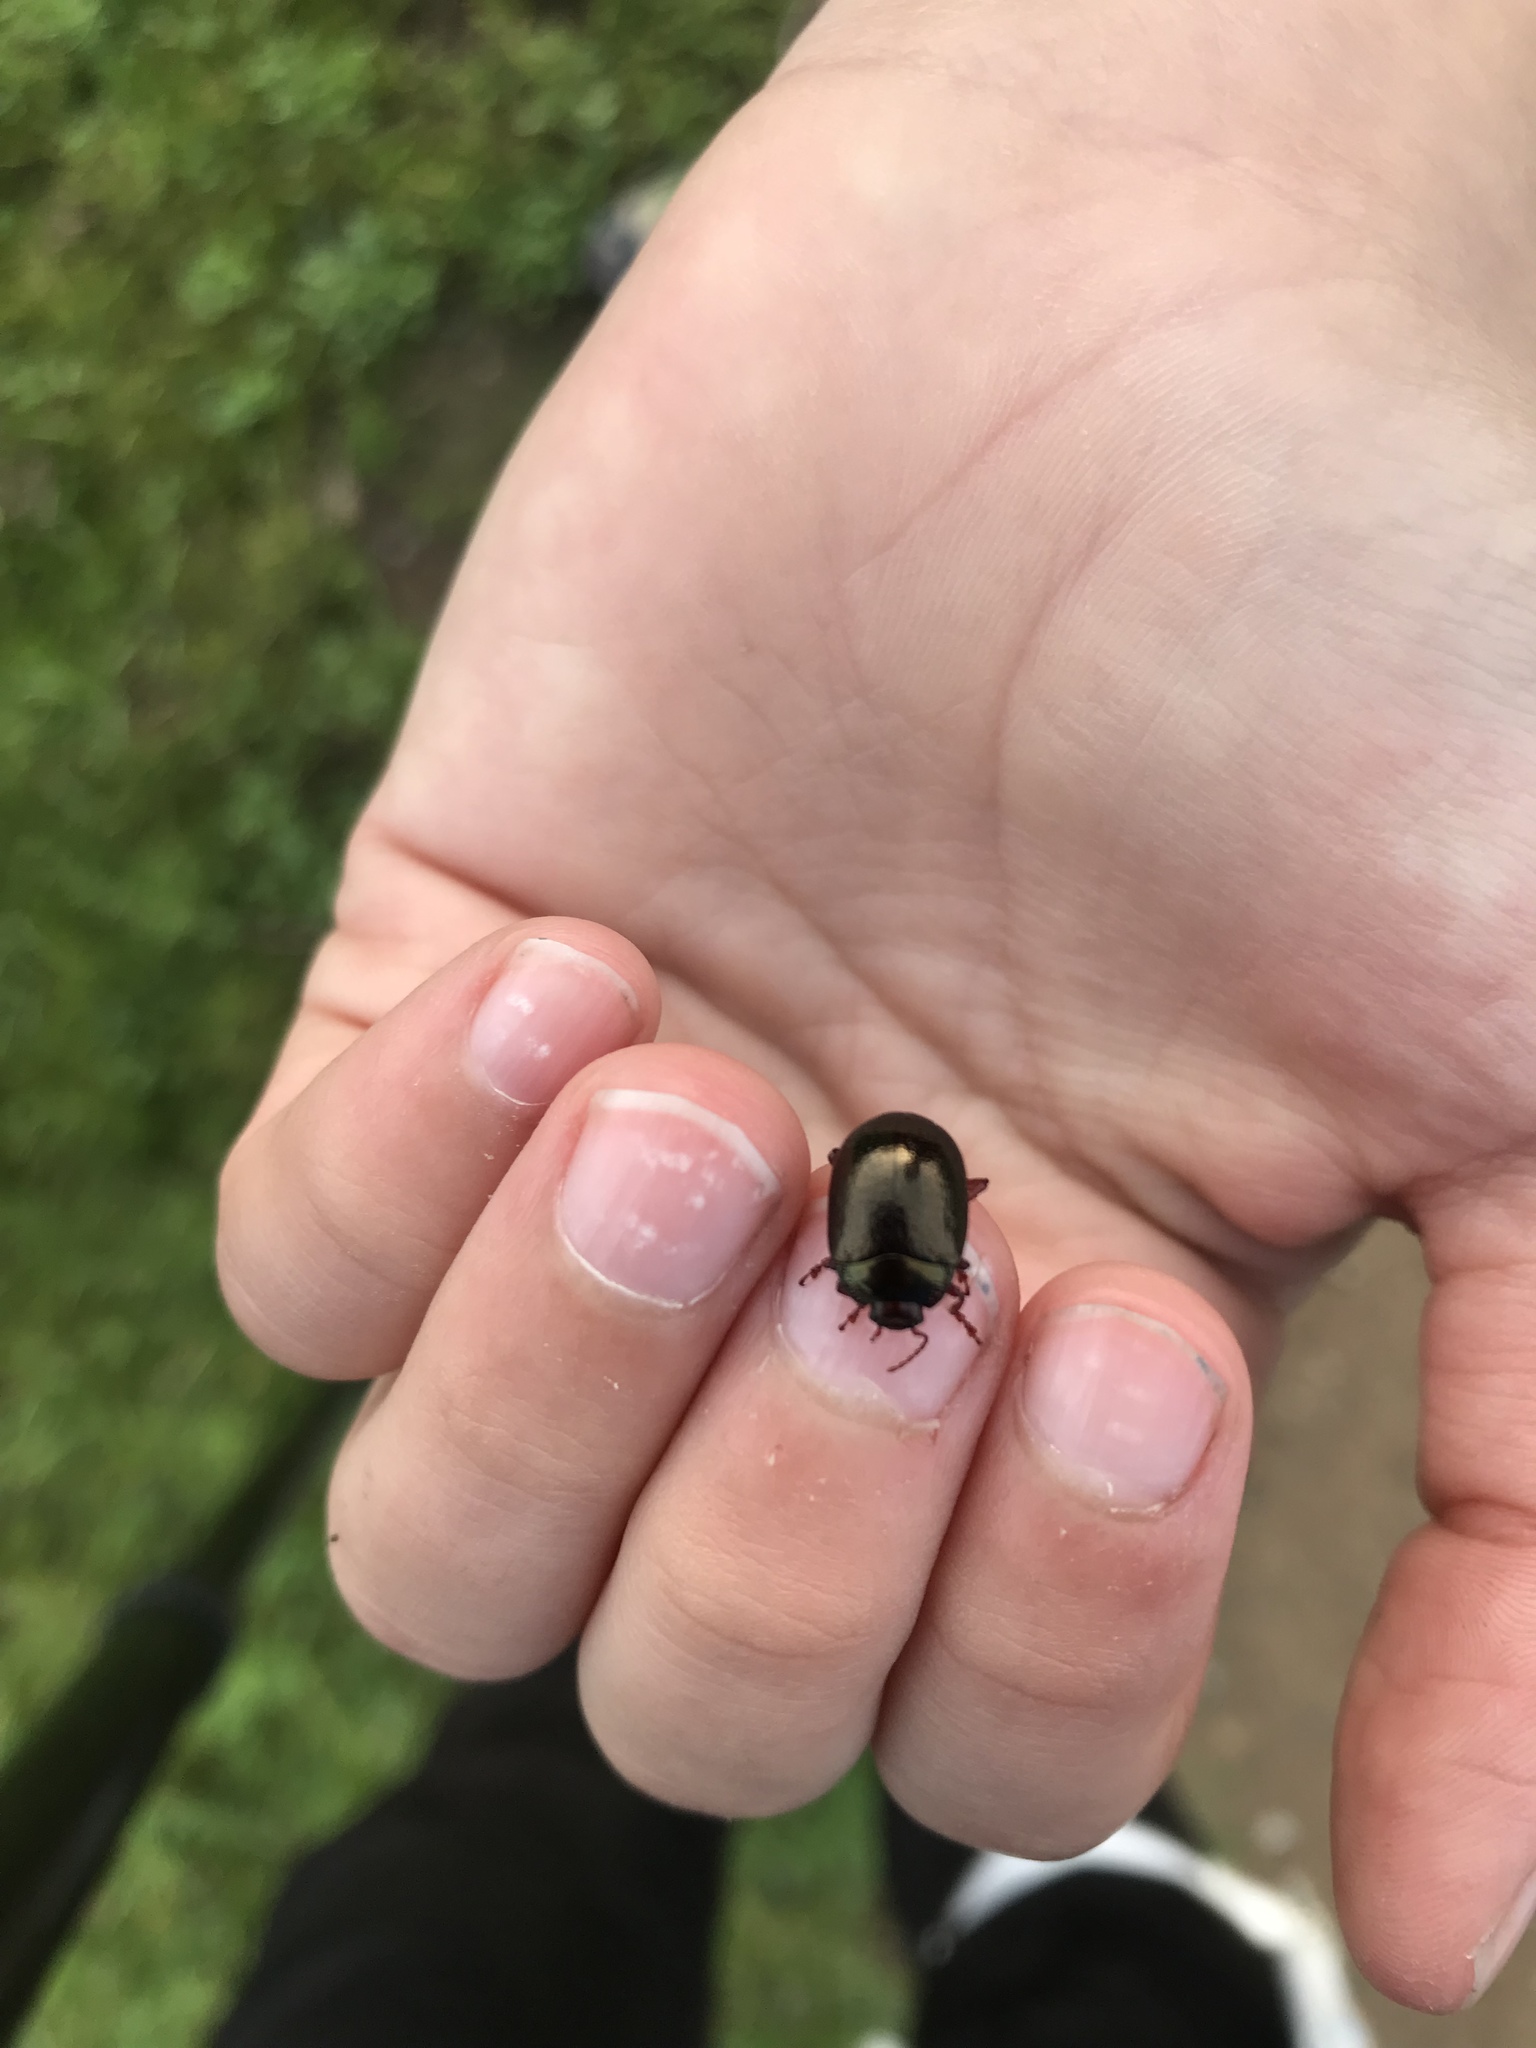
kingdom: Animalia
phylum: Arthropoda
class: Insecta
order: Coleoptera
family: Chrysomelidae
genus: Chrysolina
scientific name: Chrysolina bankii
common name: Leaf beetle
